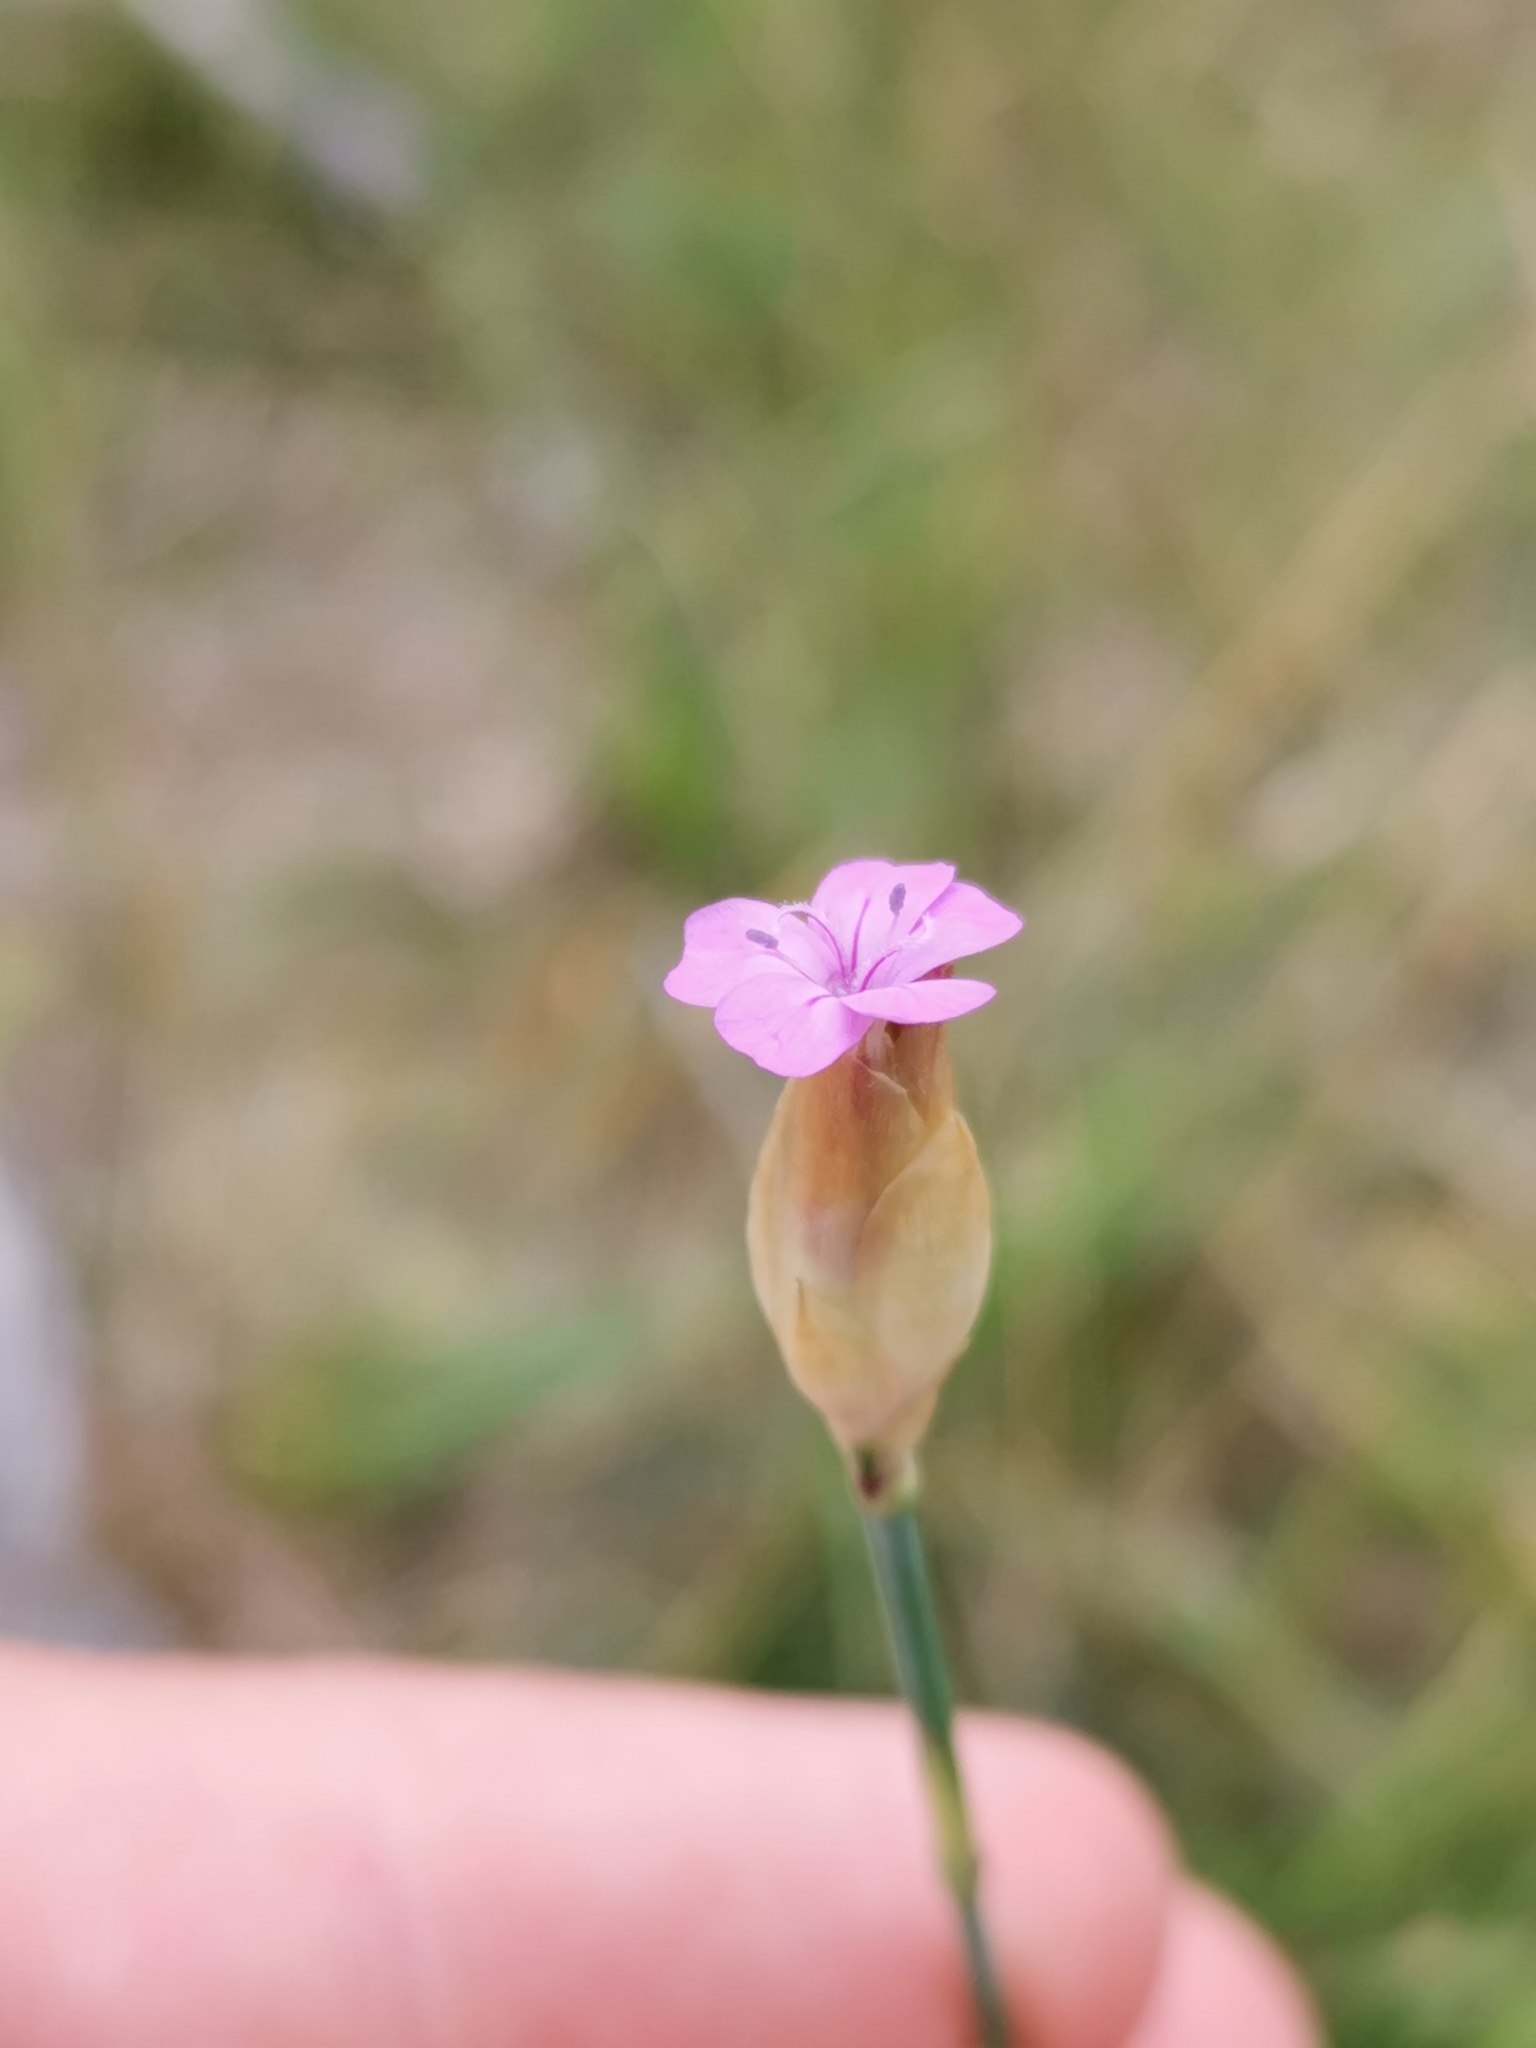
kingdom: Plantae
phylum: Tracheophyta
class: Magnoliopsida
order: Caryophyllales
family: Caryophyllaceae
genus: Petrorhagia
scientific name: Petrorhagia prolifera
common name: Proliferous pink
